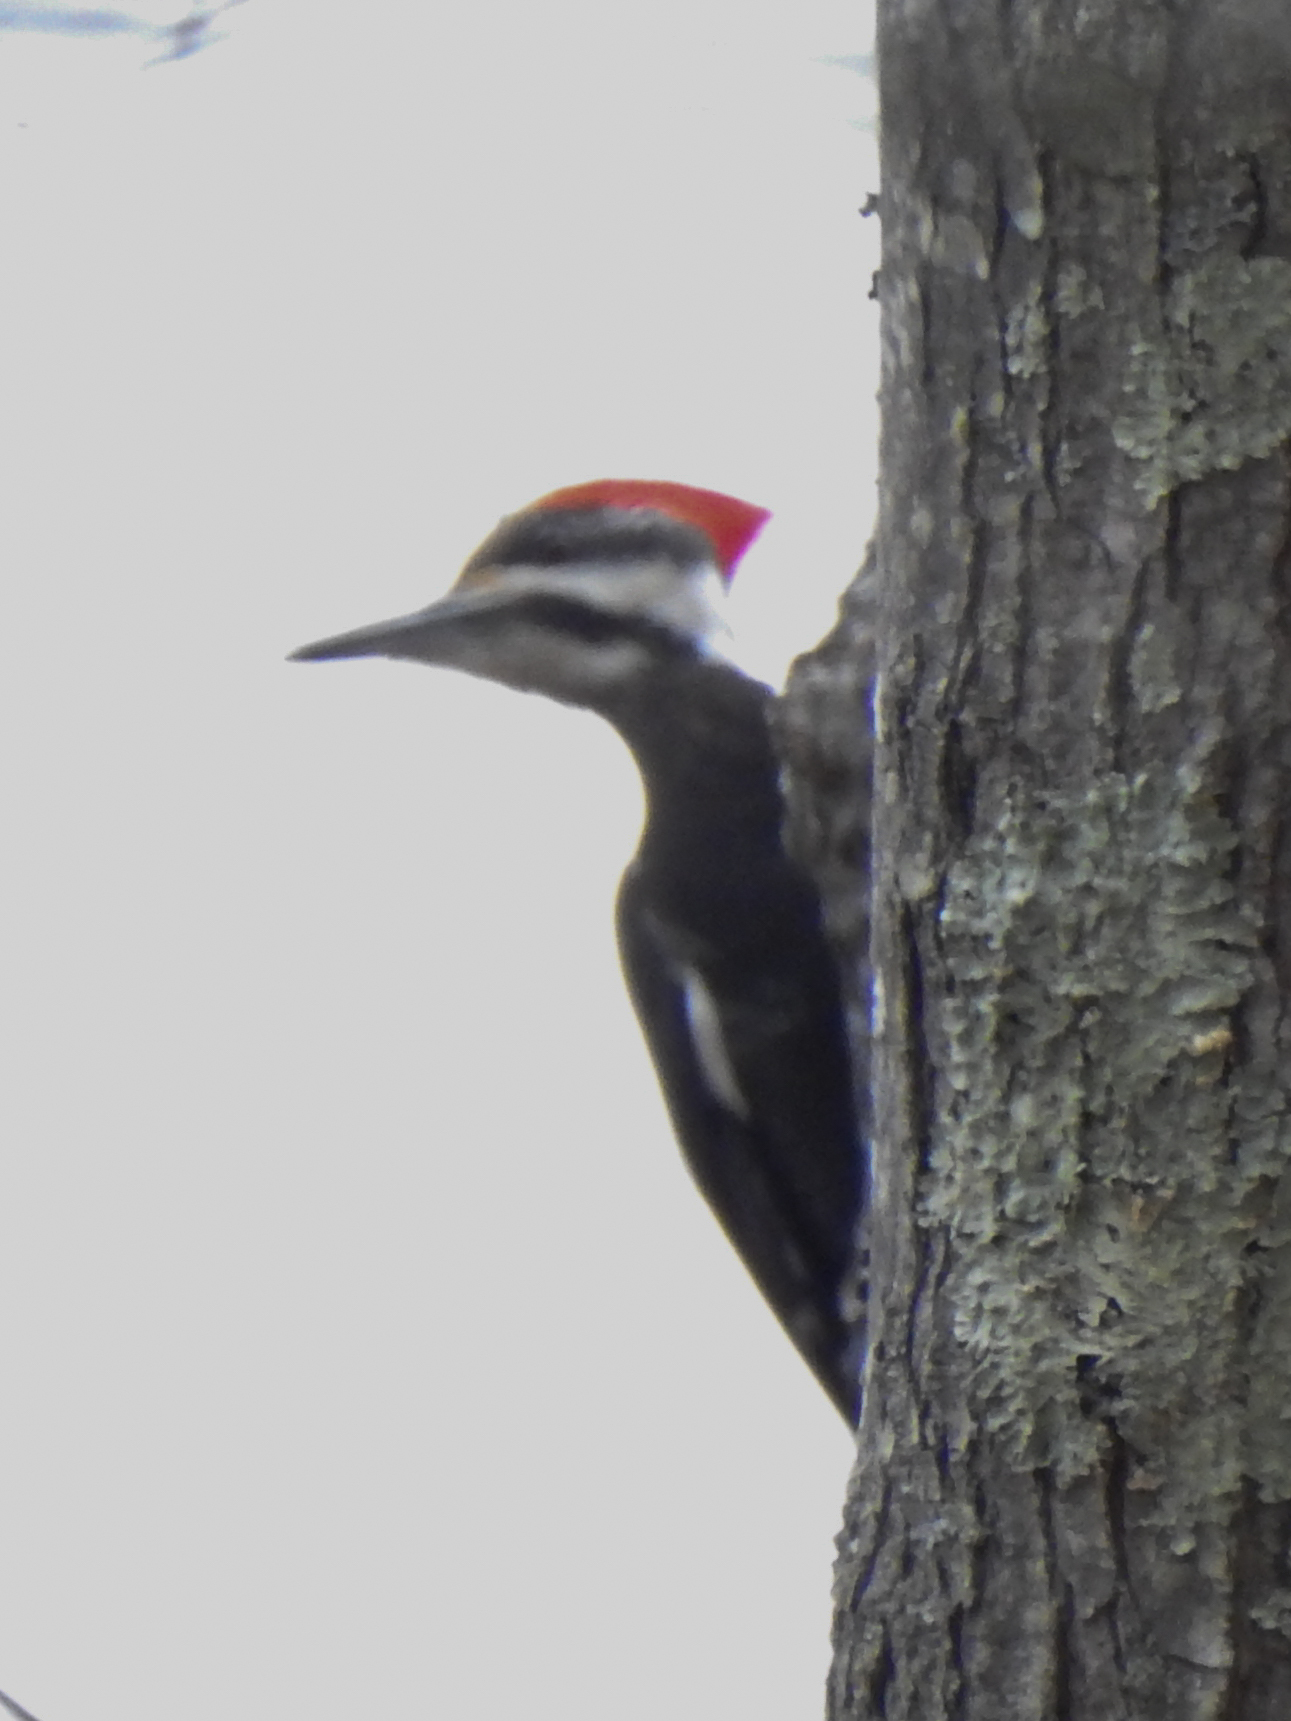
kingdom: Animalia
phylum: Chordata
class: Aves
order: Piciformes
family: Picidae
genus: Dryocopus
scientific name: Dryocopus pileatus
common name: Pileated woodpecker
